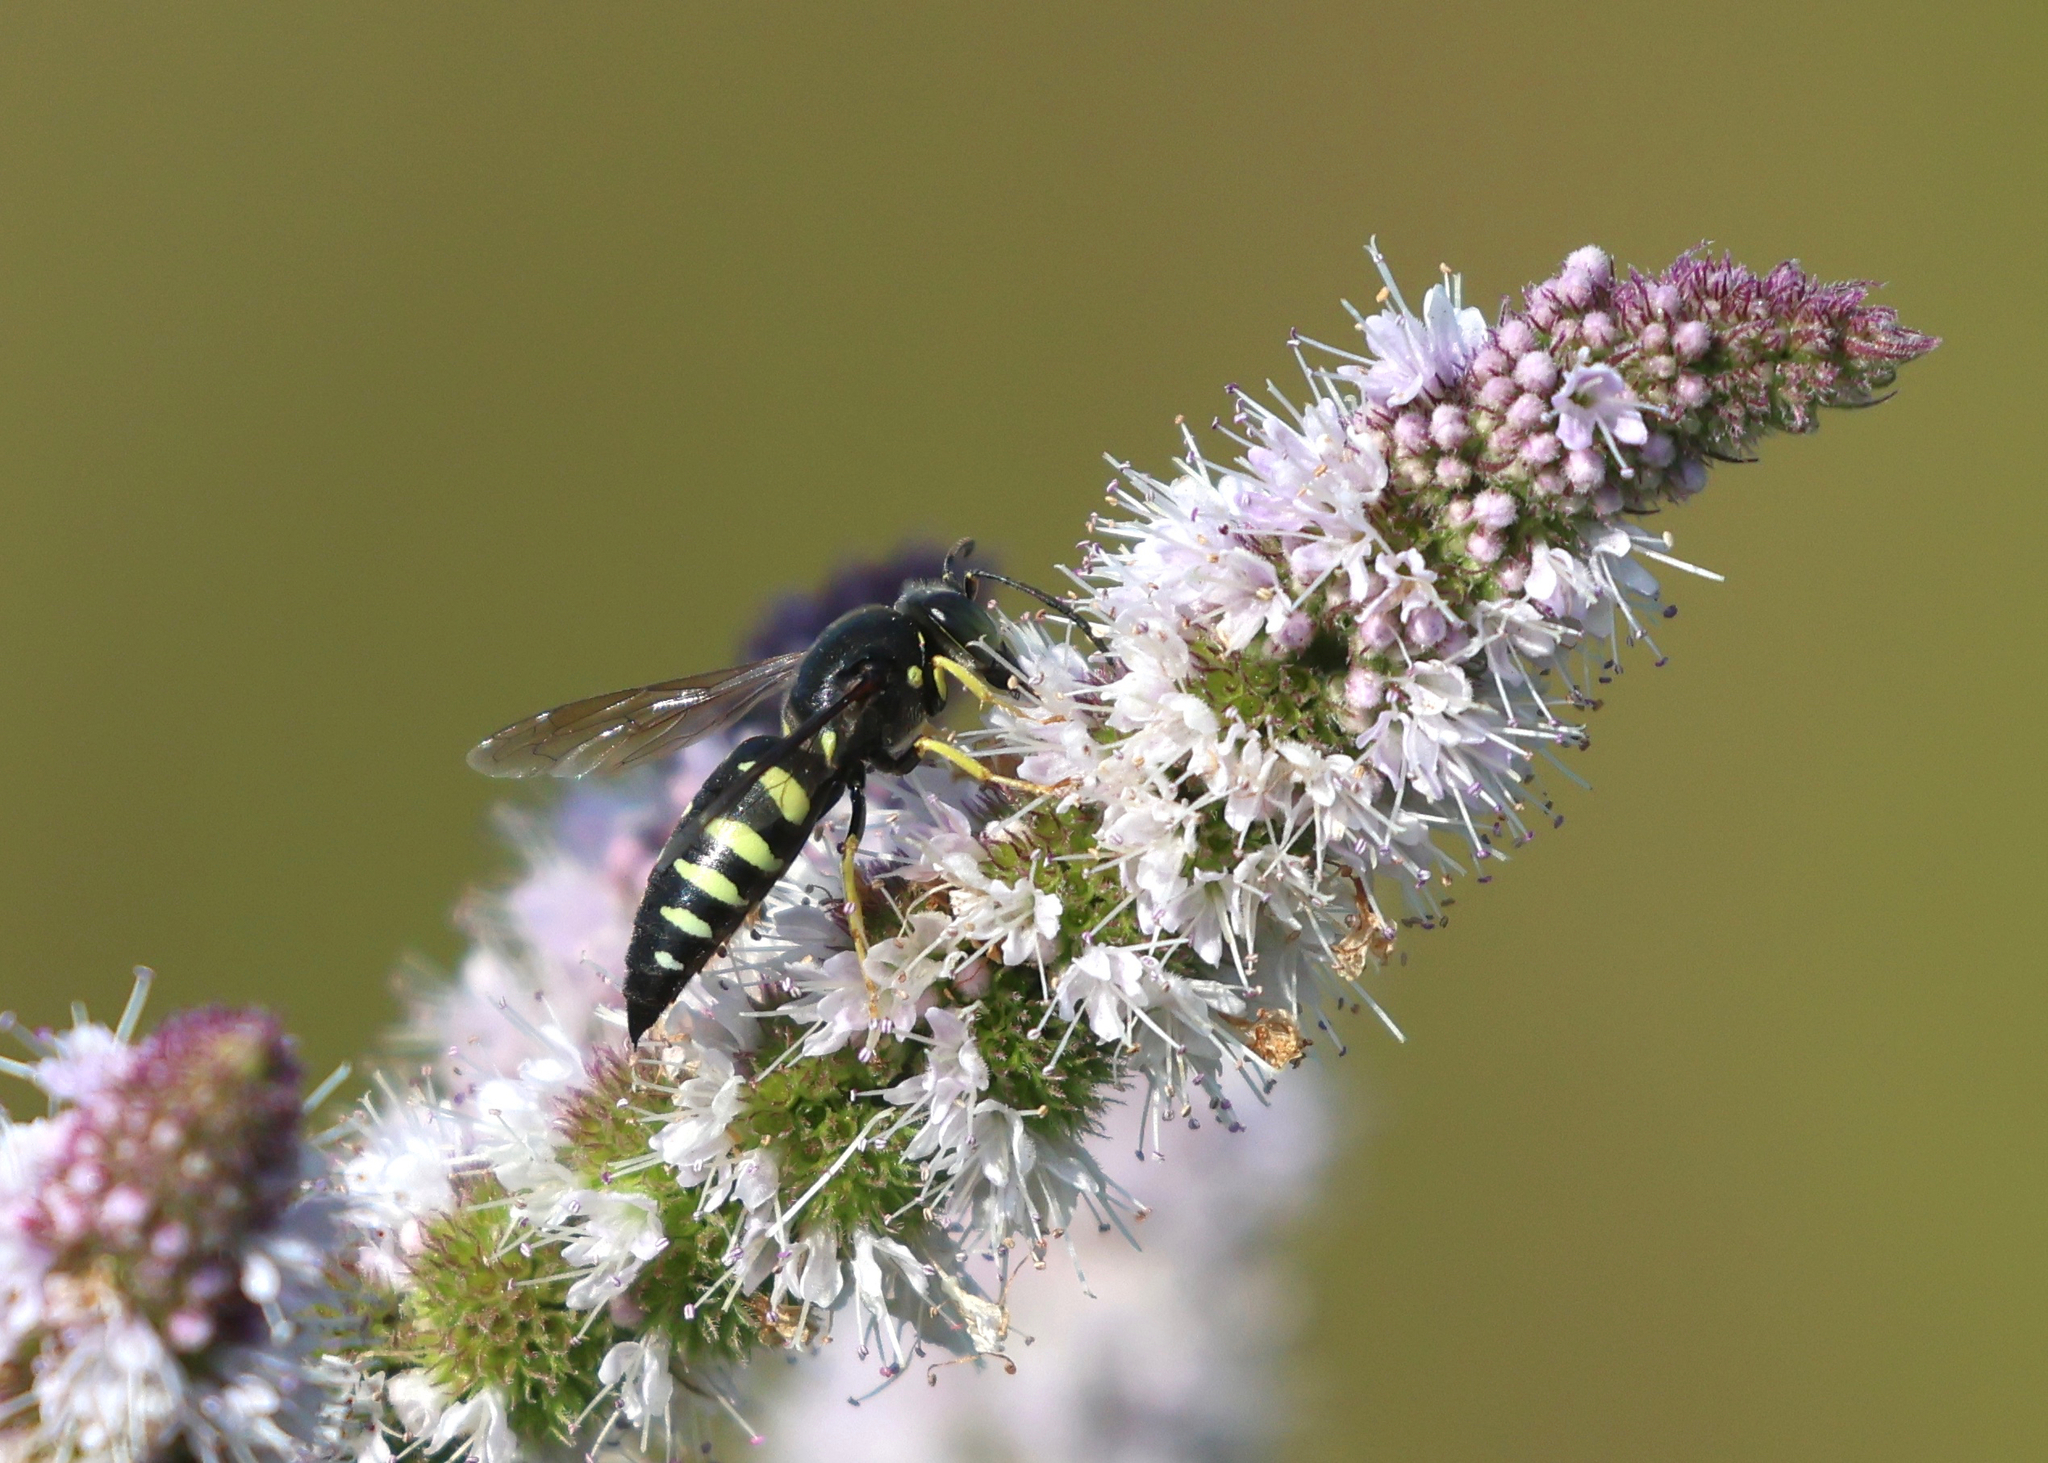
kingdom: Animalia
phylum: Arthropoda
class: Insecta
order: Hymenoptera
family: Crabronidae
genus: Bicyrtes
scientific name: Bicyrtes quadrifasciatus
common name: Four-banded stink bug hunter wasp
